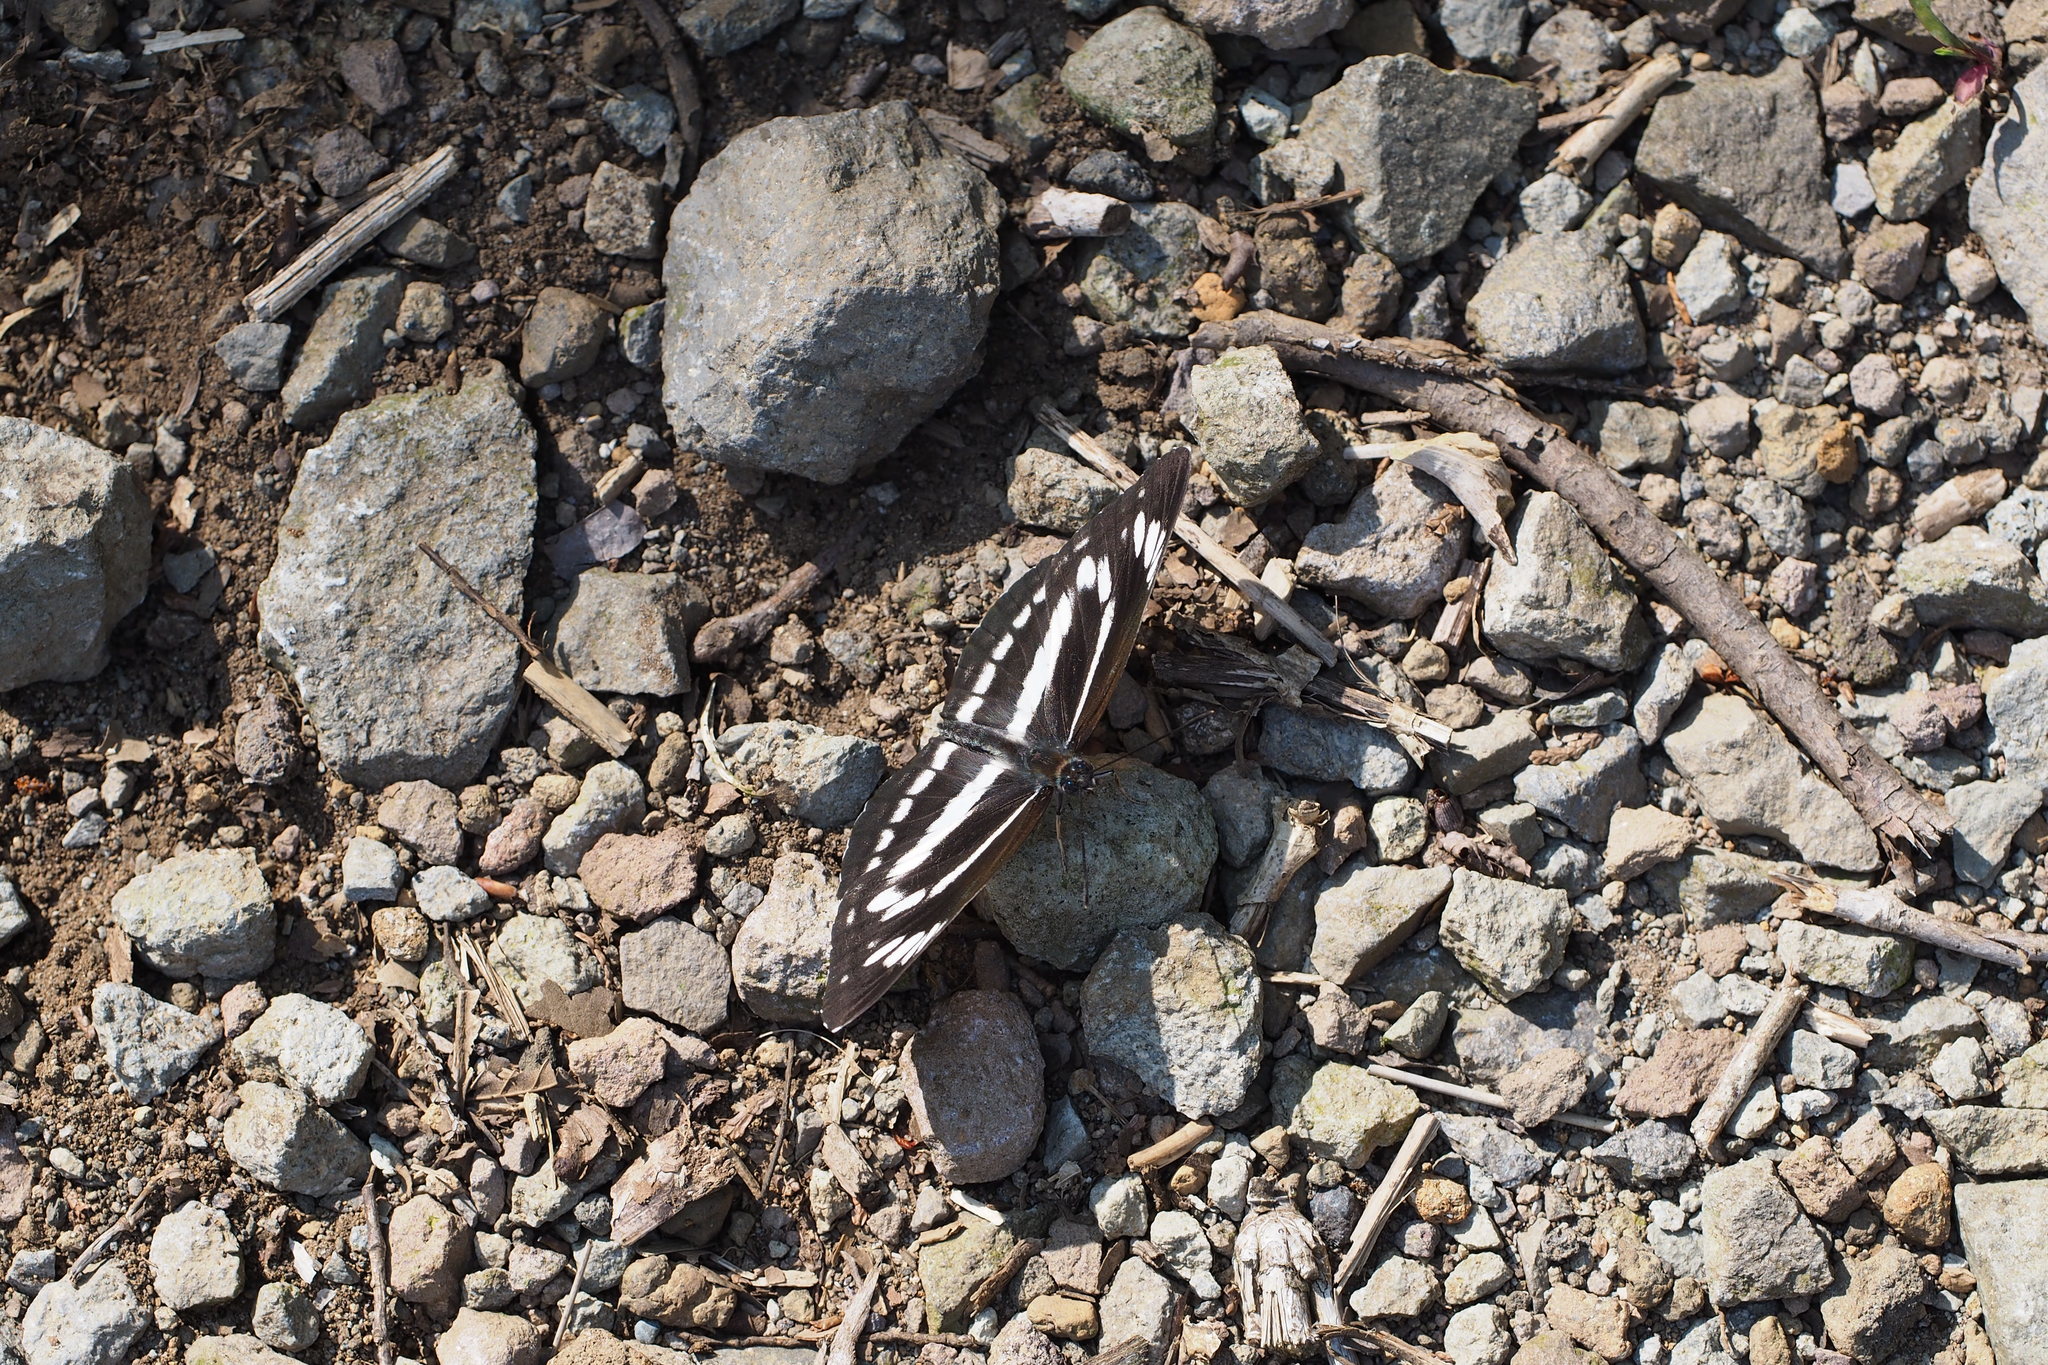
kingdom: Animalia
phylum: Arthropoda
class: Insecta
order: Lepidoptera
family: Nymphalidae
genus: Neptis
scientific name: Neptis philyra
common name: Long-streak sailor
